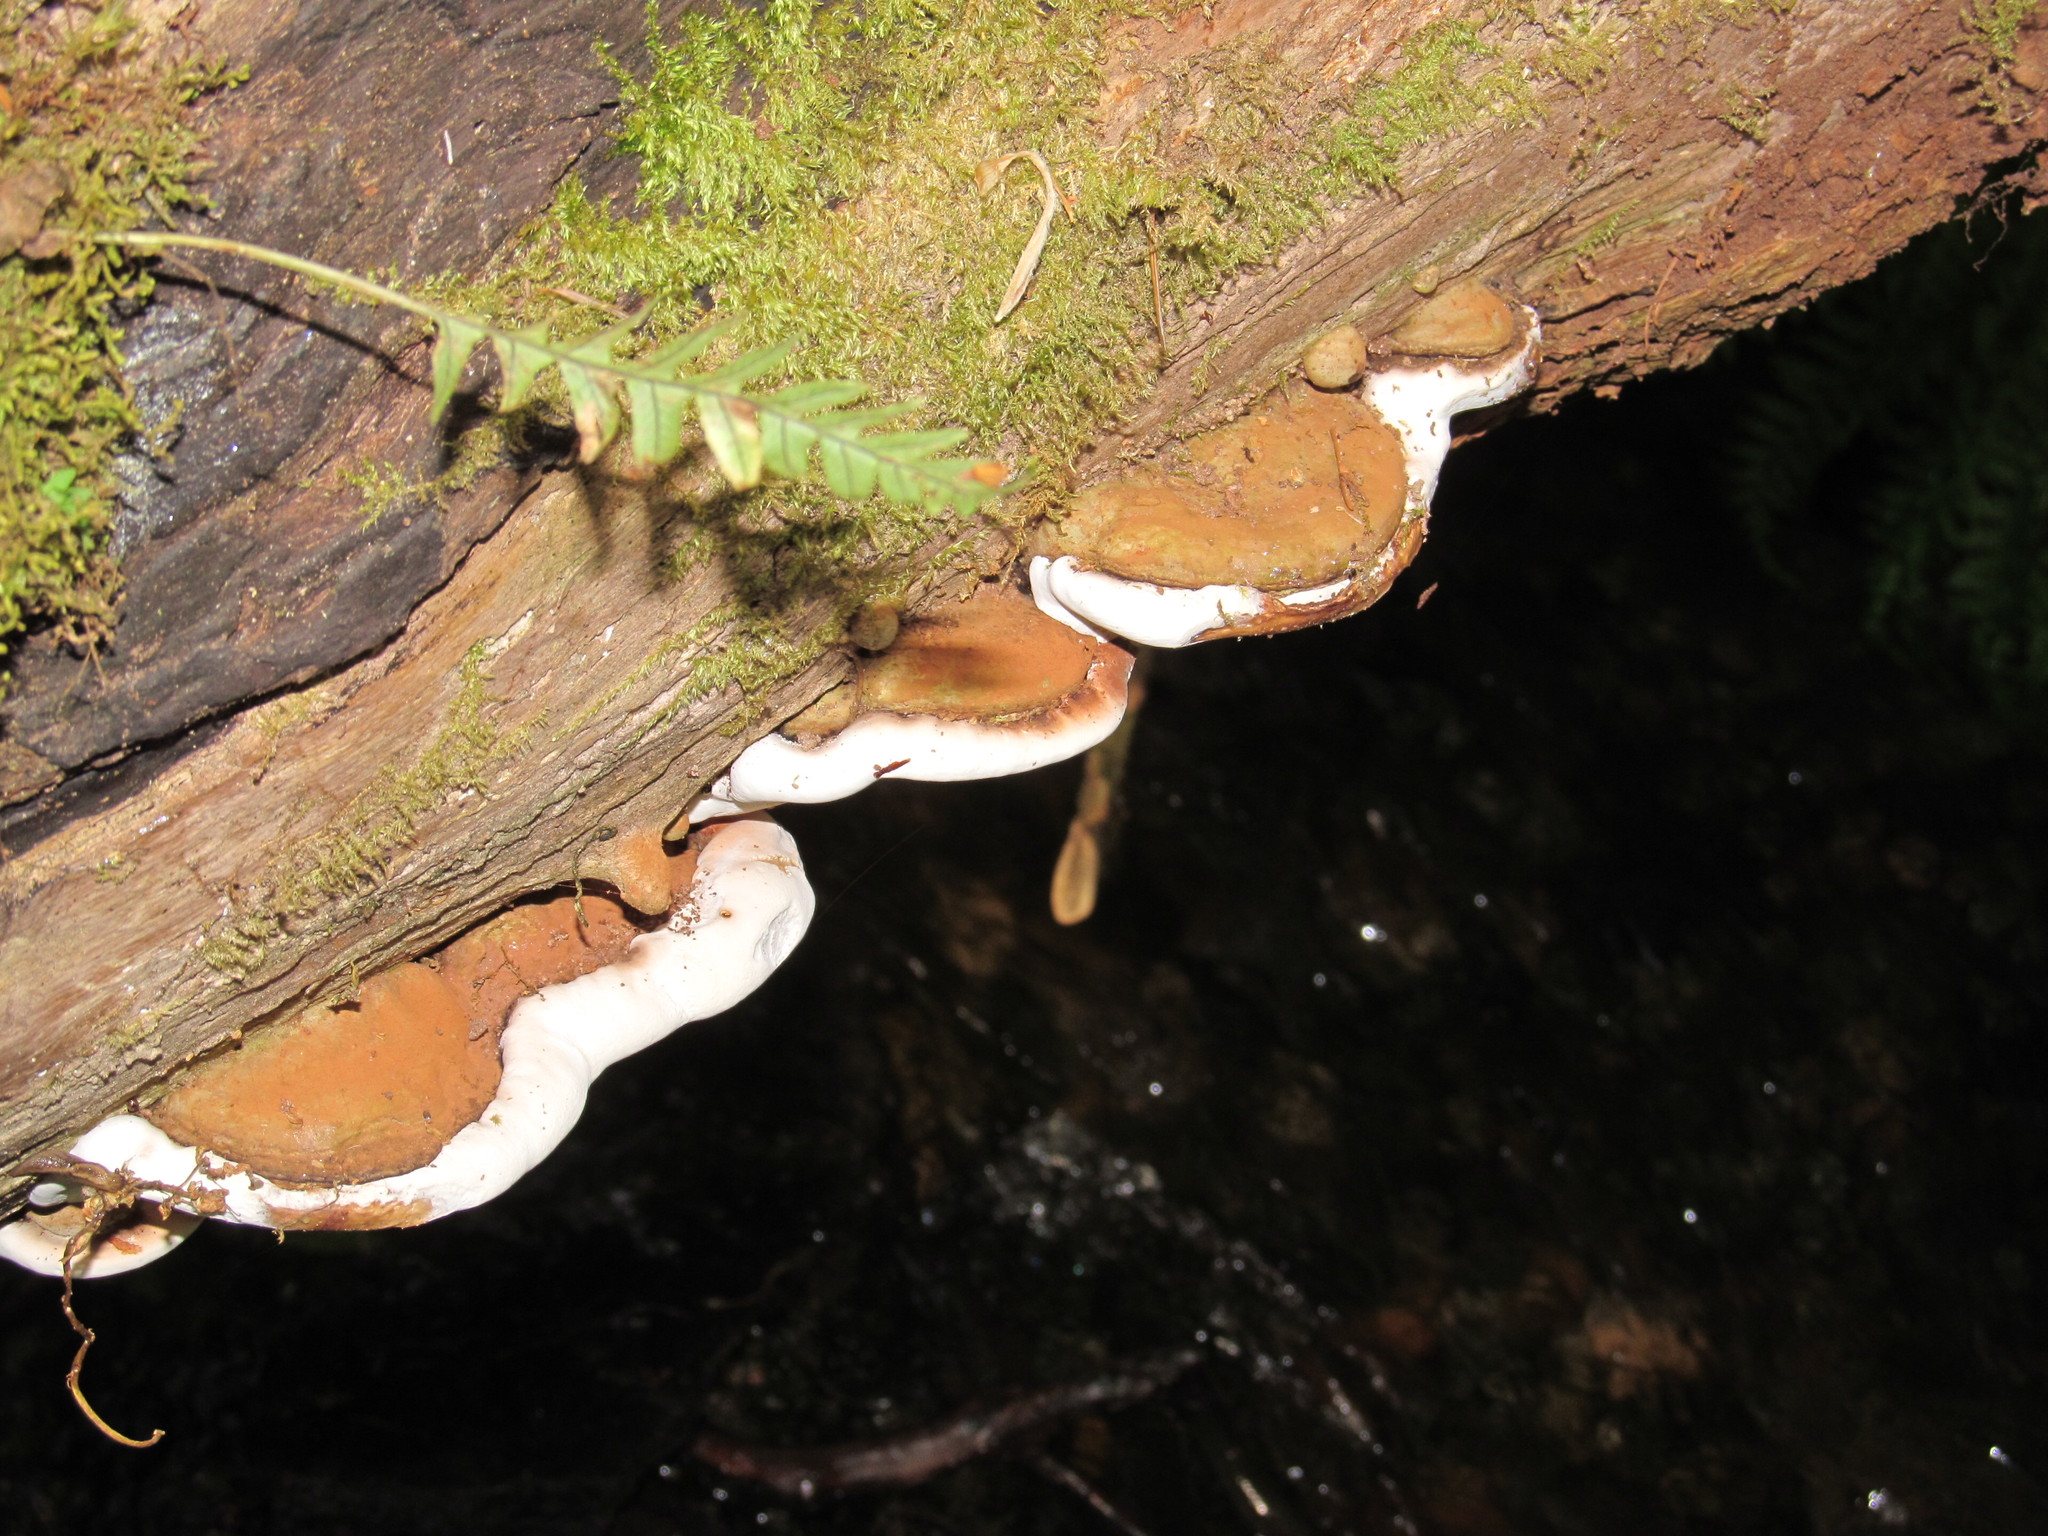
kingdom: Fungi
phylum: Basidiomycota
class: Agaricomycetes
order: Polyporales
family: Polyporaceae
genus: Ganoderma
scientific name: Ganoderma applanatum
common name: Artist's bracket
